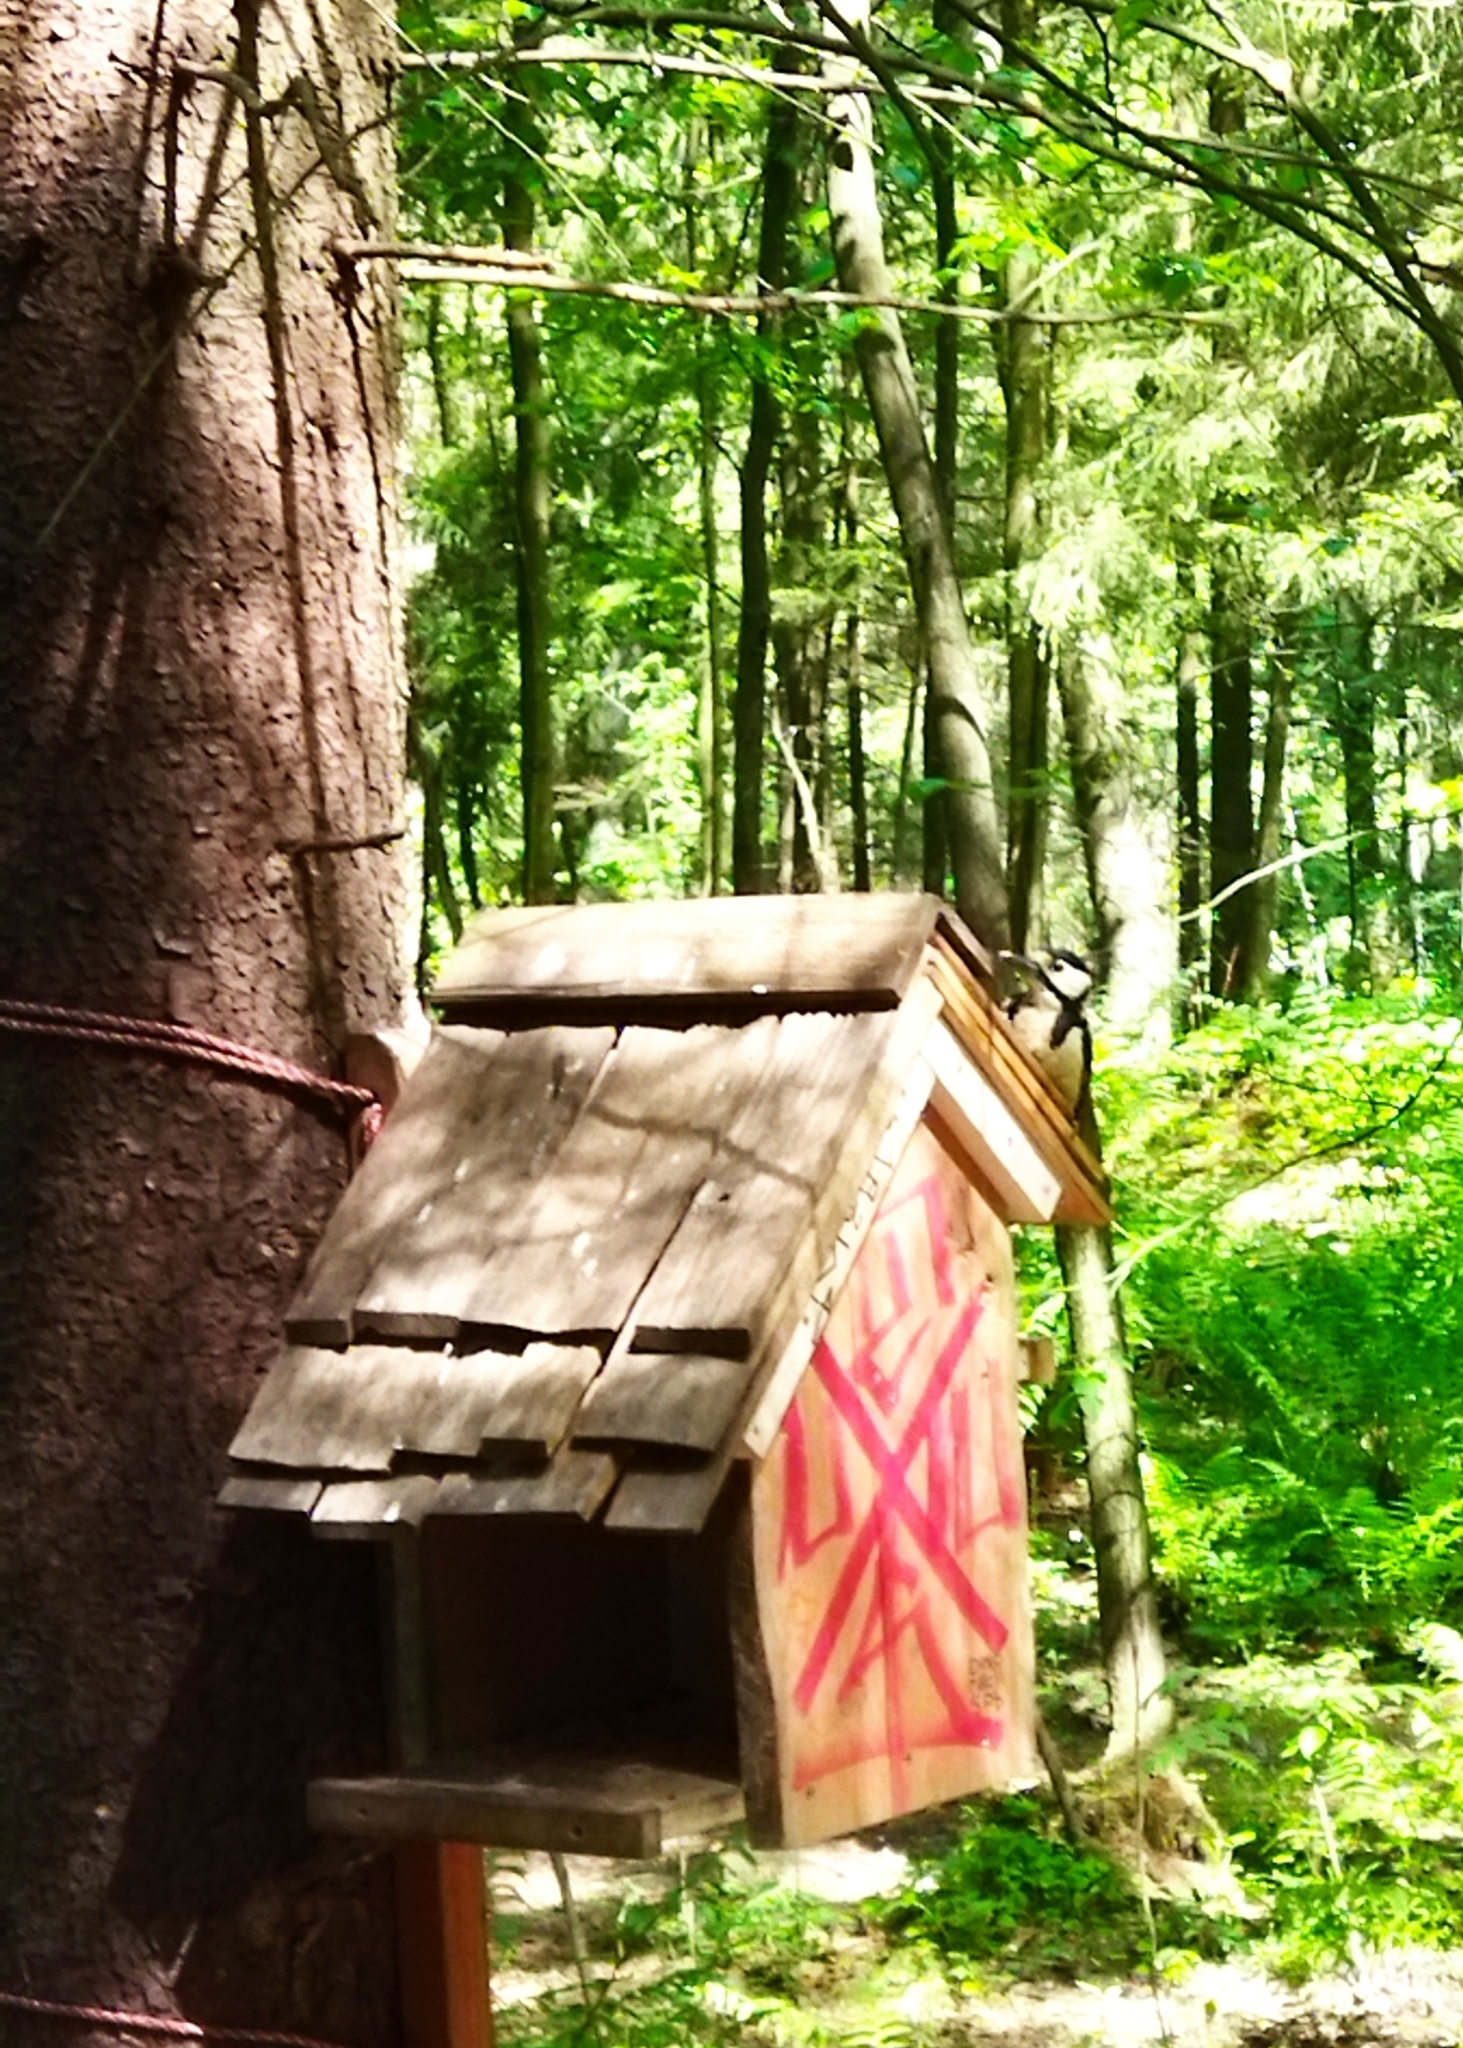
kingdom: Animalia
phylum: Chordata
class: Aves
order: Piciformes
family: Picidae
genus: Dendrocopos
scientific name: Dendrocopos major
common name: Great spotted woodpecker
